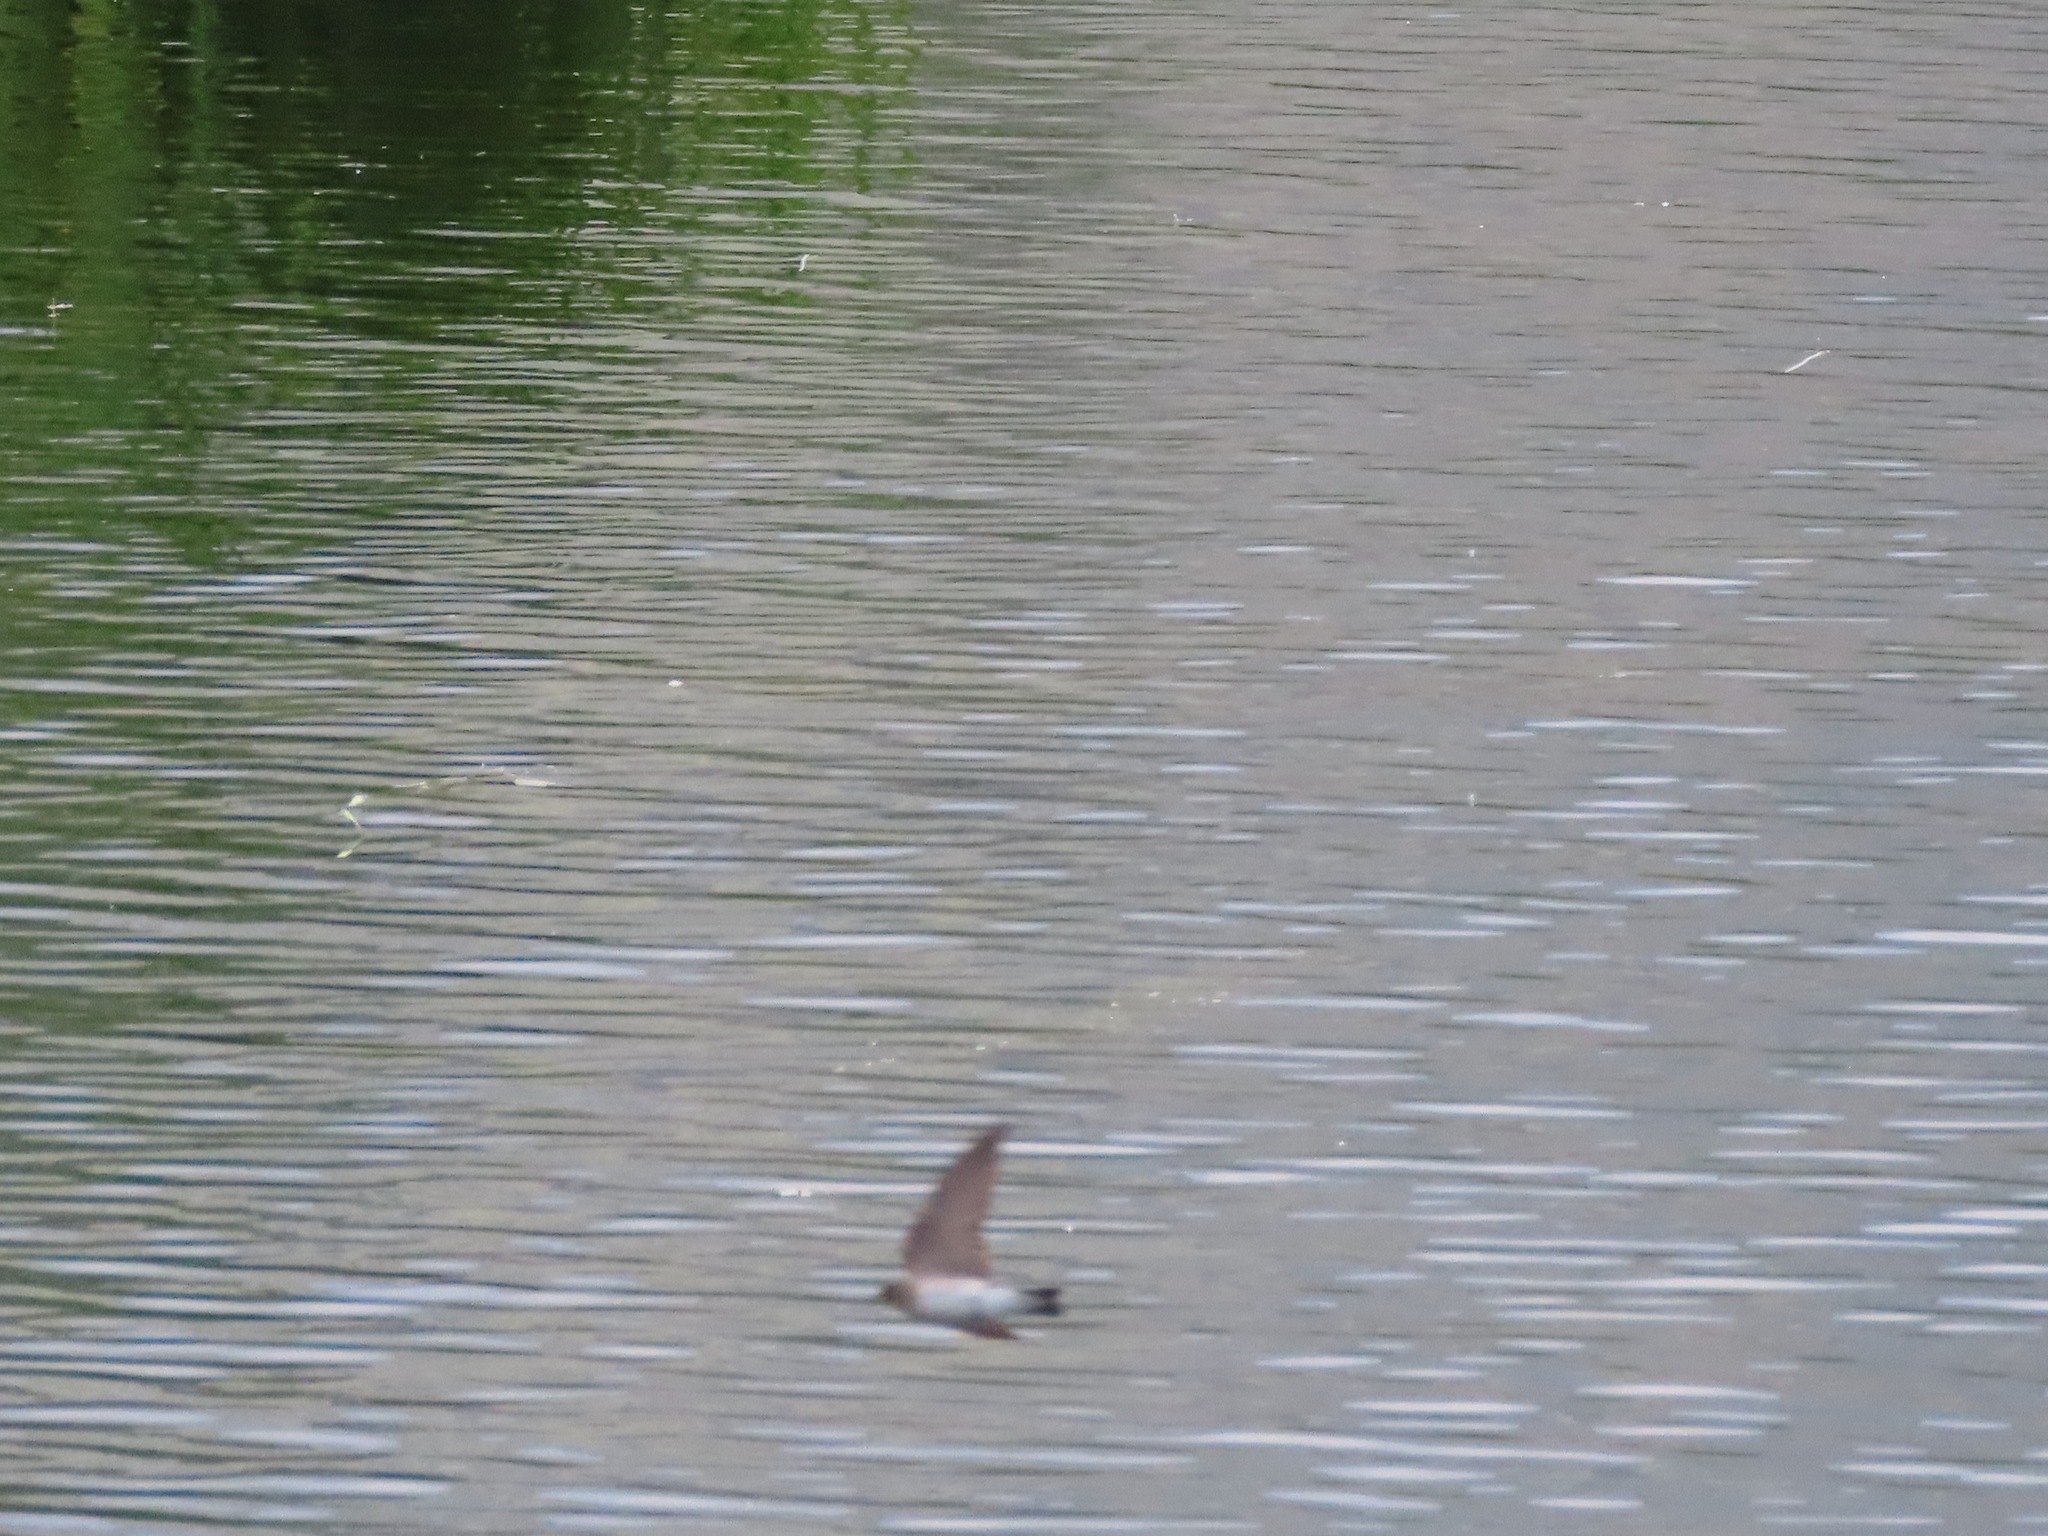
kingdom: Animalia
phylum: Chordata
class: Aves
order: Passeriformes
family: Hirundinidae
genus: Stelgidopteryx
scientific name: Stelgidopteryx serripennis
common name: Northern rough-winged swallow
